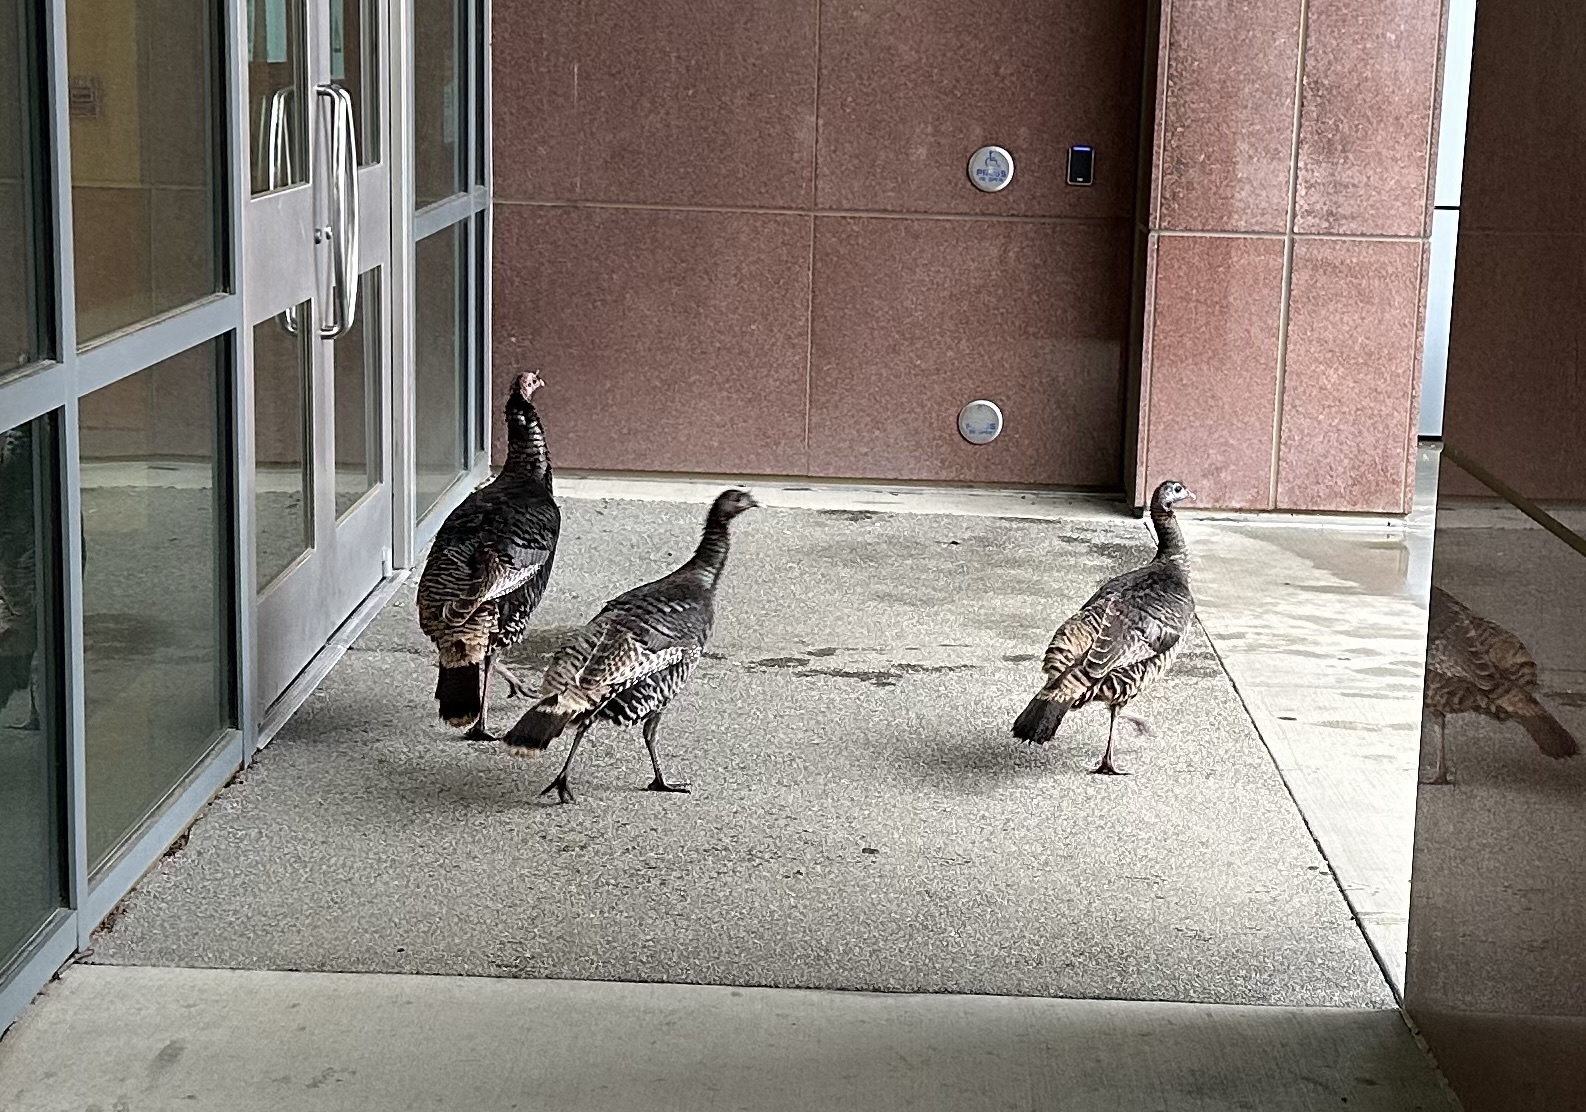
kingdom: Animalia
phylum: Chordata
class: Aves
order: Galliformes
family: Phasianidae
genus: Meleagris
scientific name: Meleagris gallopavo
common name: Wild turkey
